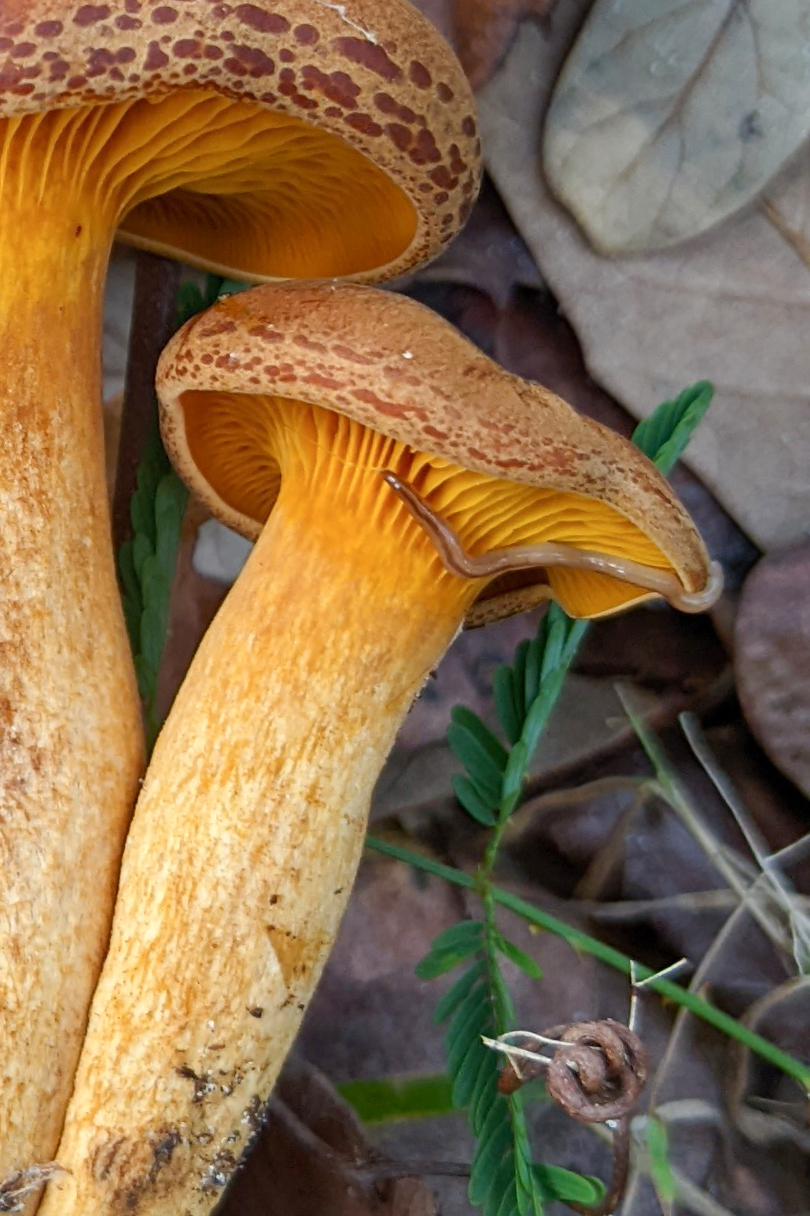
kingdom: Animalia
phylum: Nemertea
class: Hoplonemertea
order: Monostilifera
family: Prosorhochmidae
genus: Geonemertes
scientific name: Geonemertes pelaensis
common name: Land nemertean
